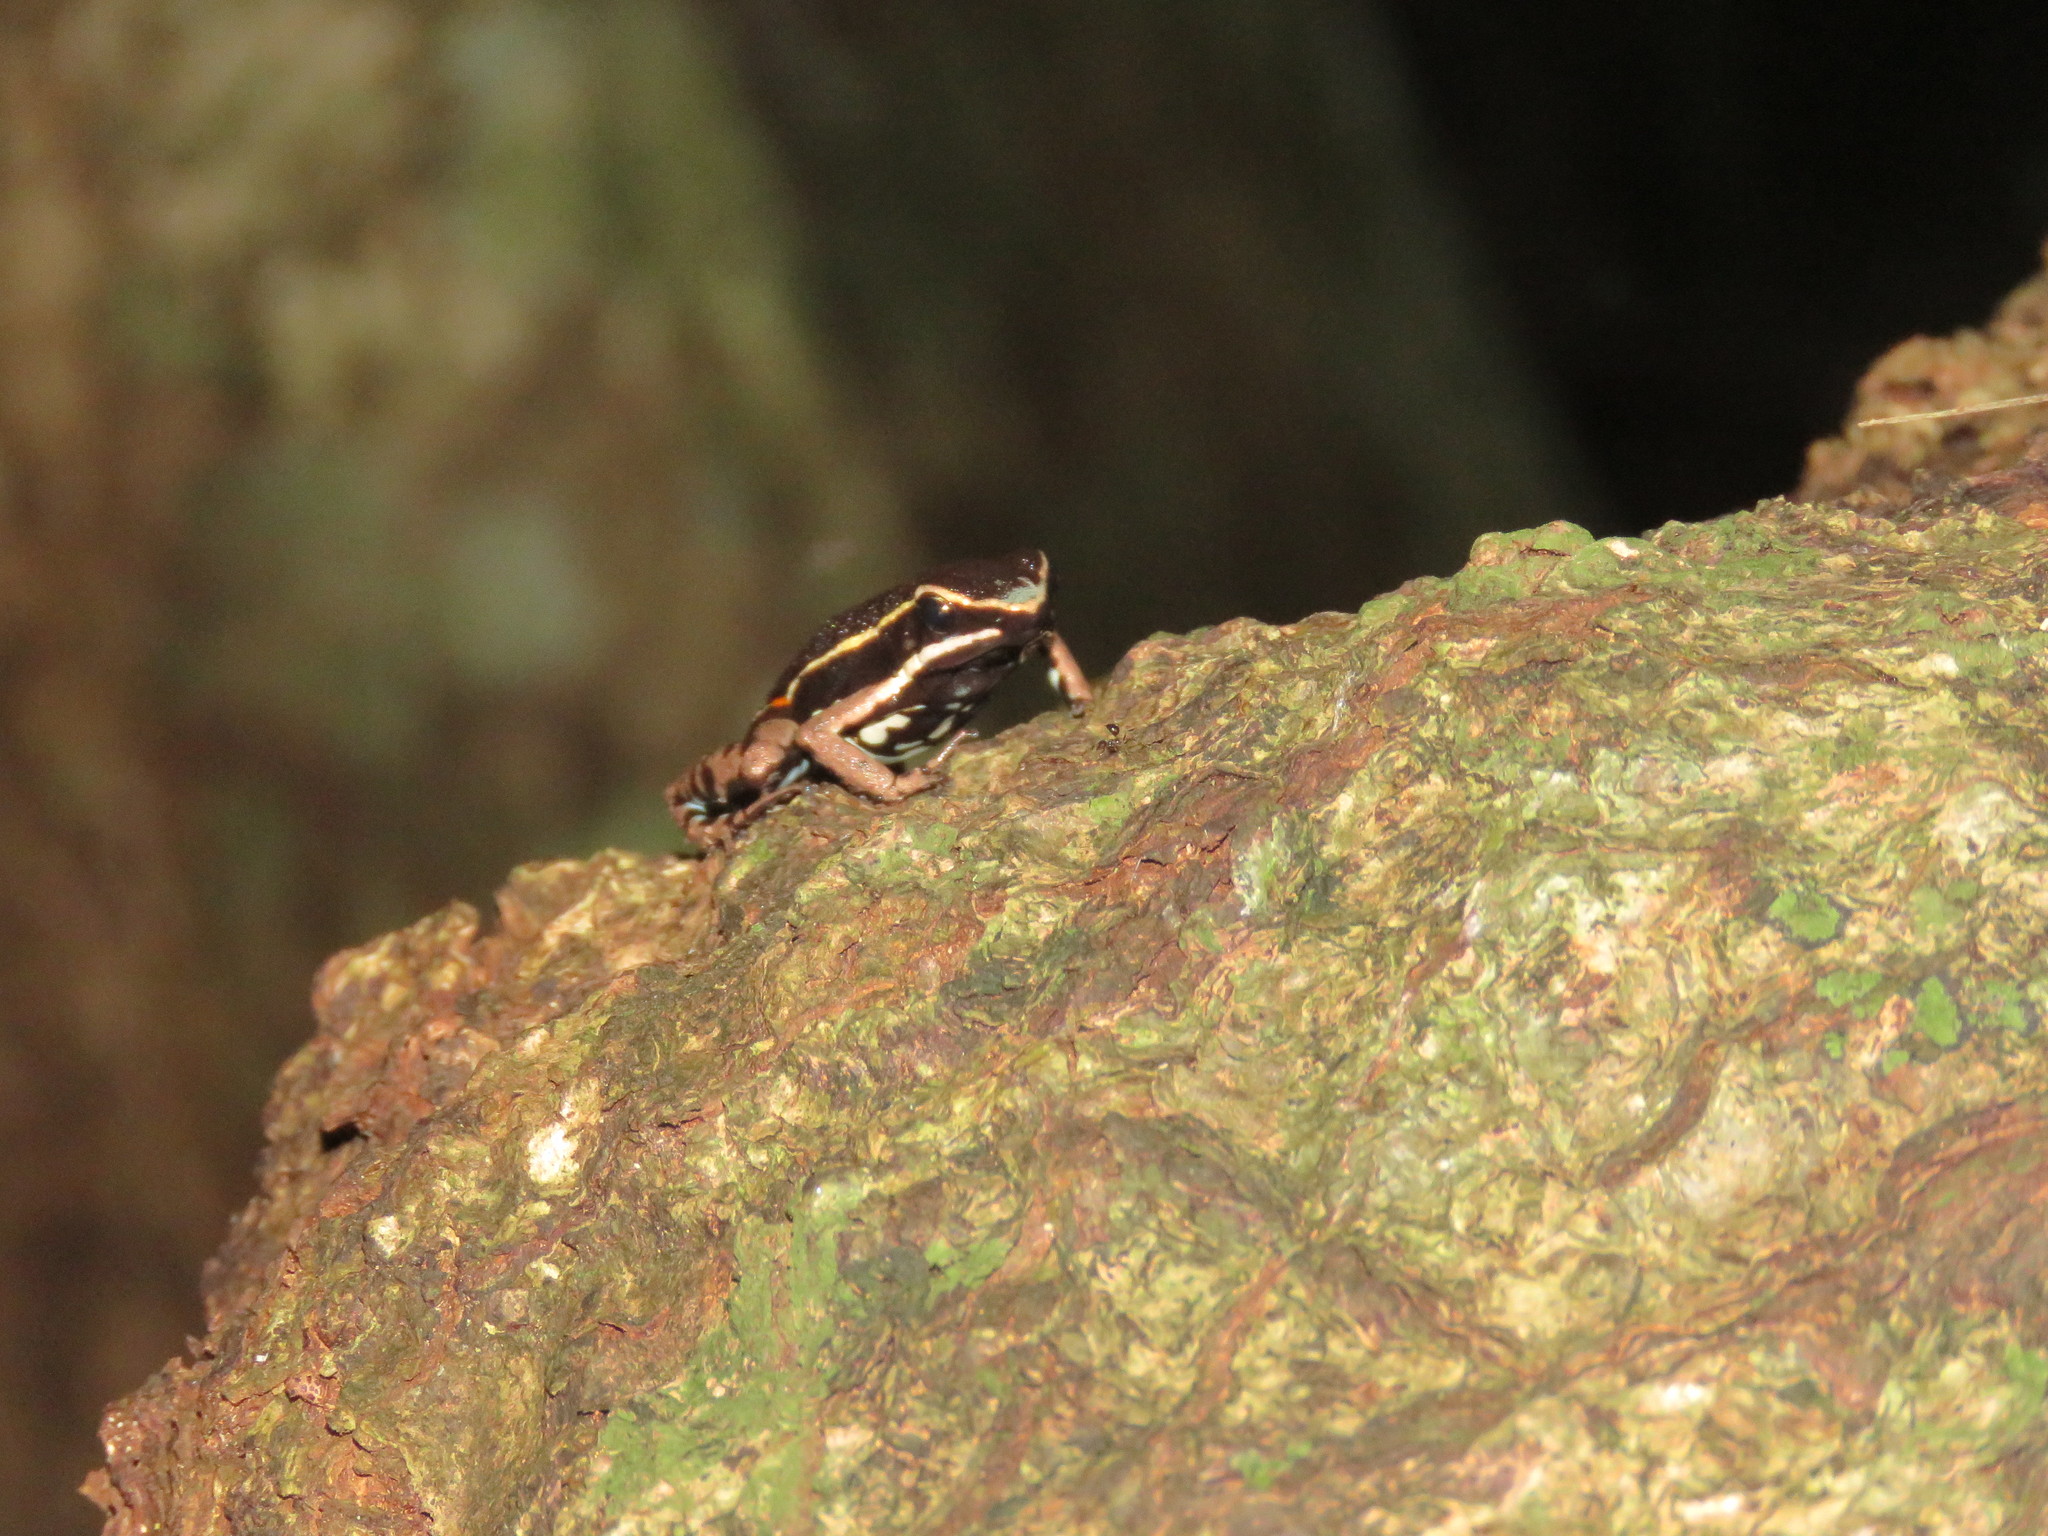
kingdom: Animalia
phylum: Chordata
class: Amphibia
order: Anura
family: Dendrobatidae
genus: Ameerega
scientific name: Ameerega picta
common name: Spot-legged poison frog
